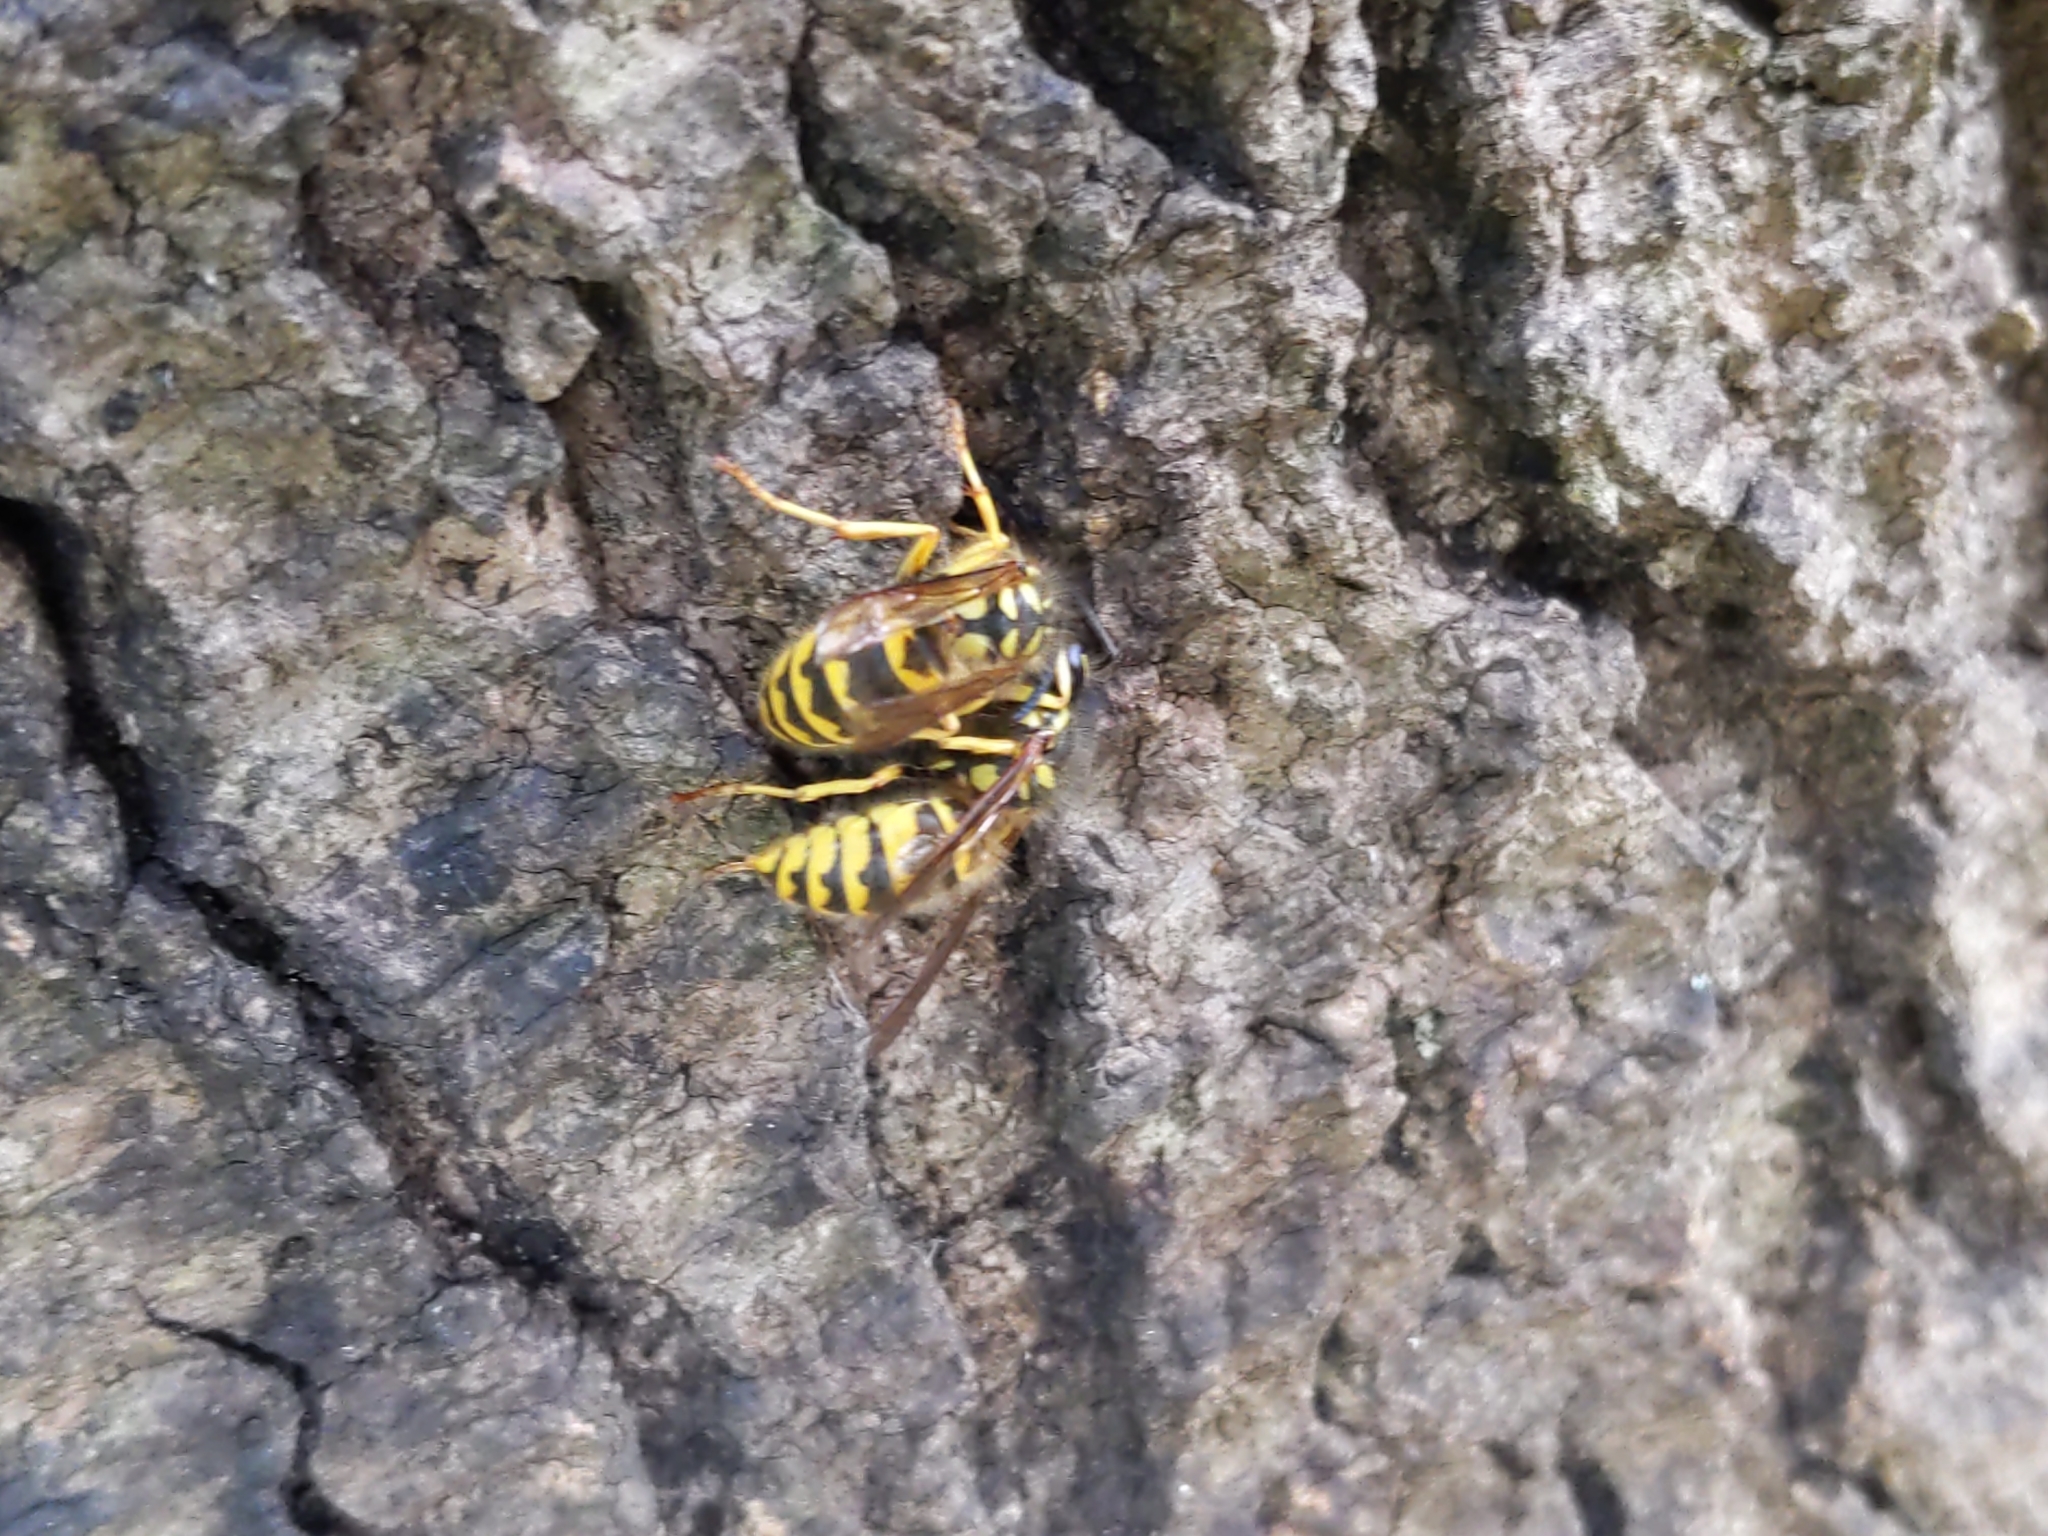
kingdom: Animalia
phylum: Arthropoda
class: Insecta
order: Hymenoptera
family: Vespidae
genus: Vespula
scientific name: Vespula flavopilosa
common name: Downy yellowjacket
